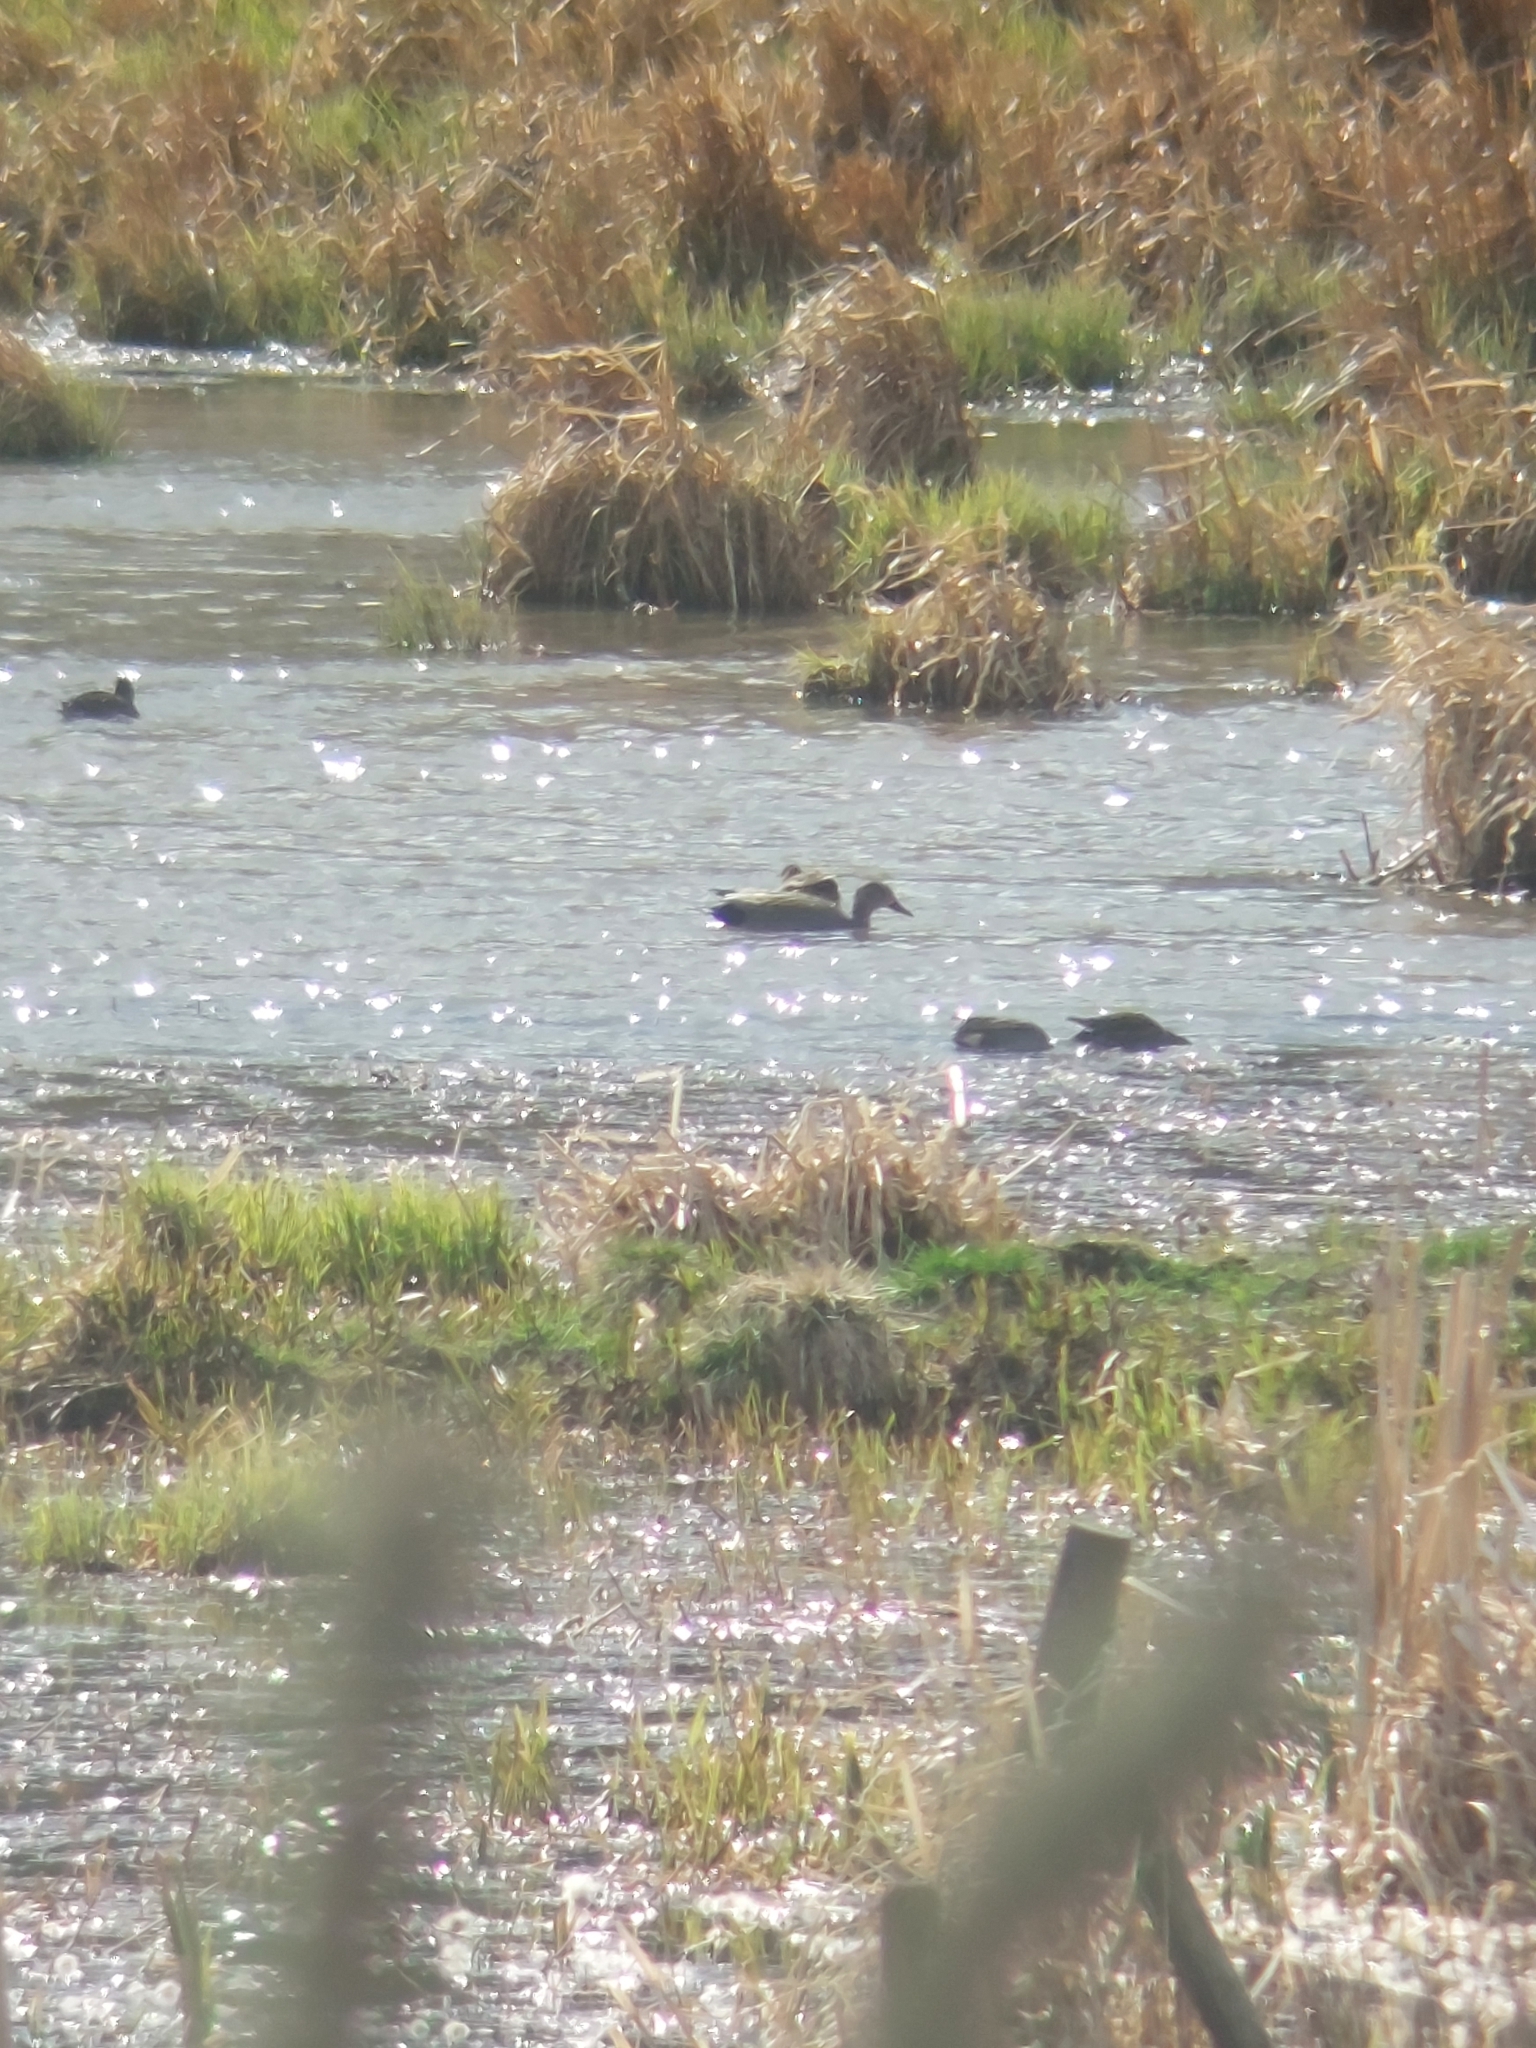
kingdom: Animalia
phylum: Chordata
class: Aves
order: Anseriformes
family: Anatidae
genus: Mareca
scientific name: Mareca strepera
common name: Gadwall
